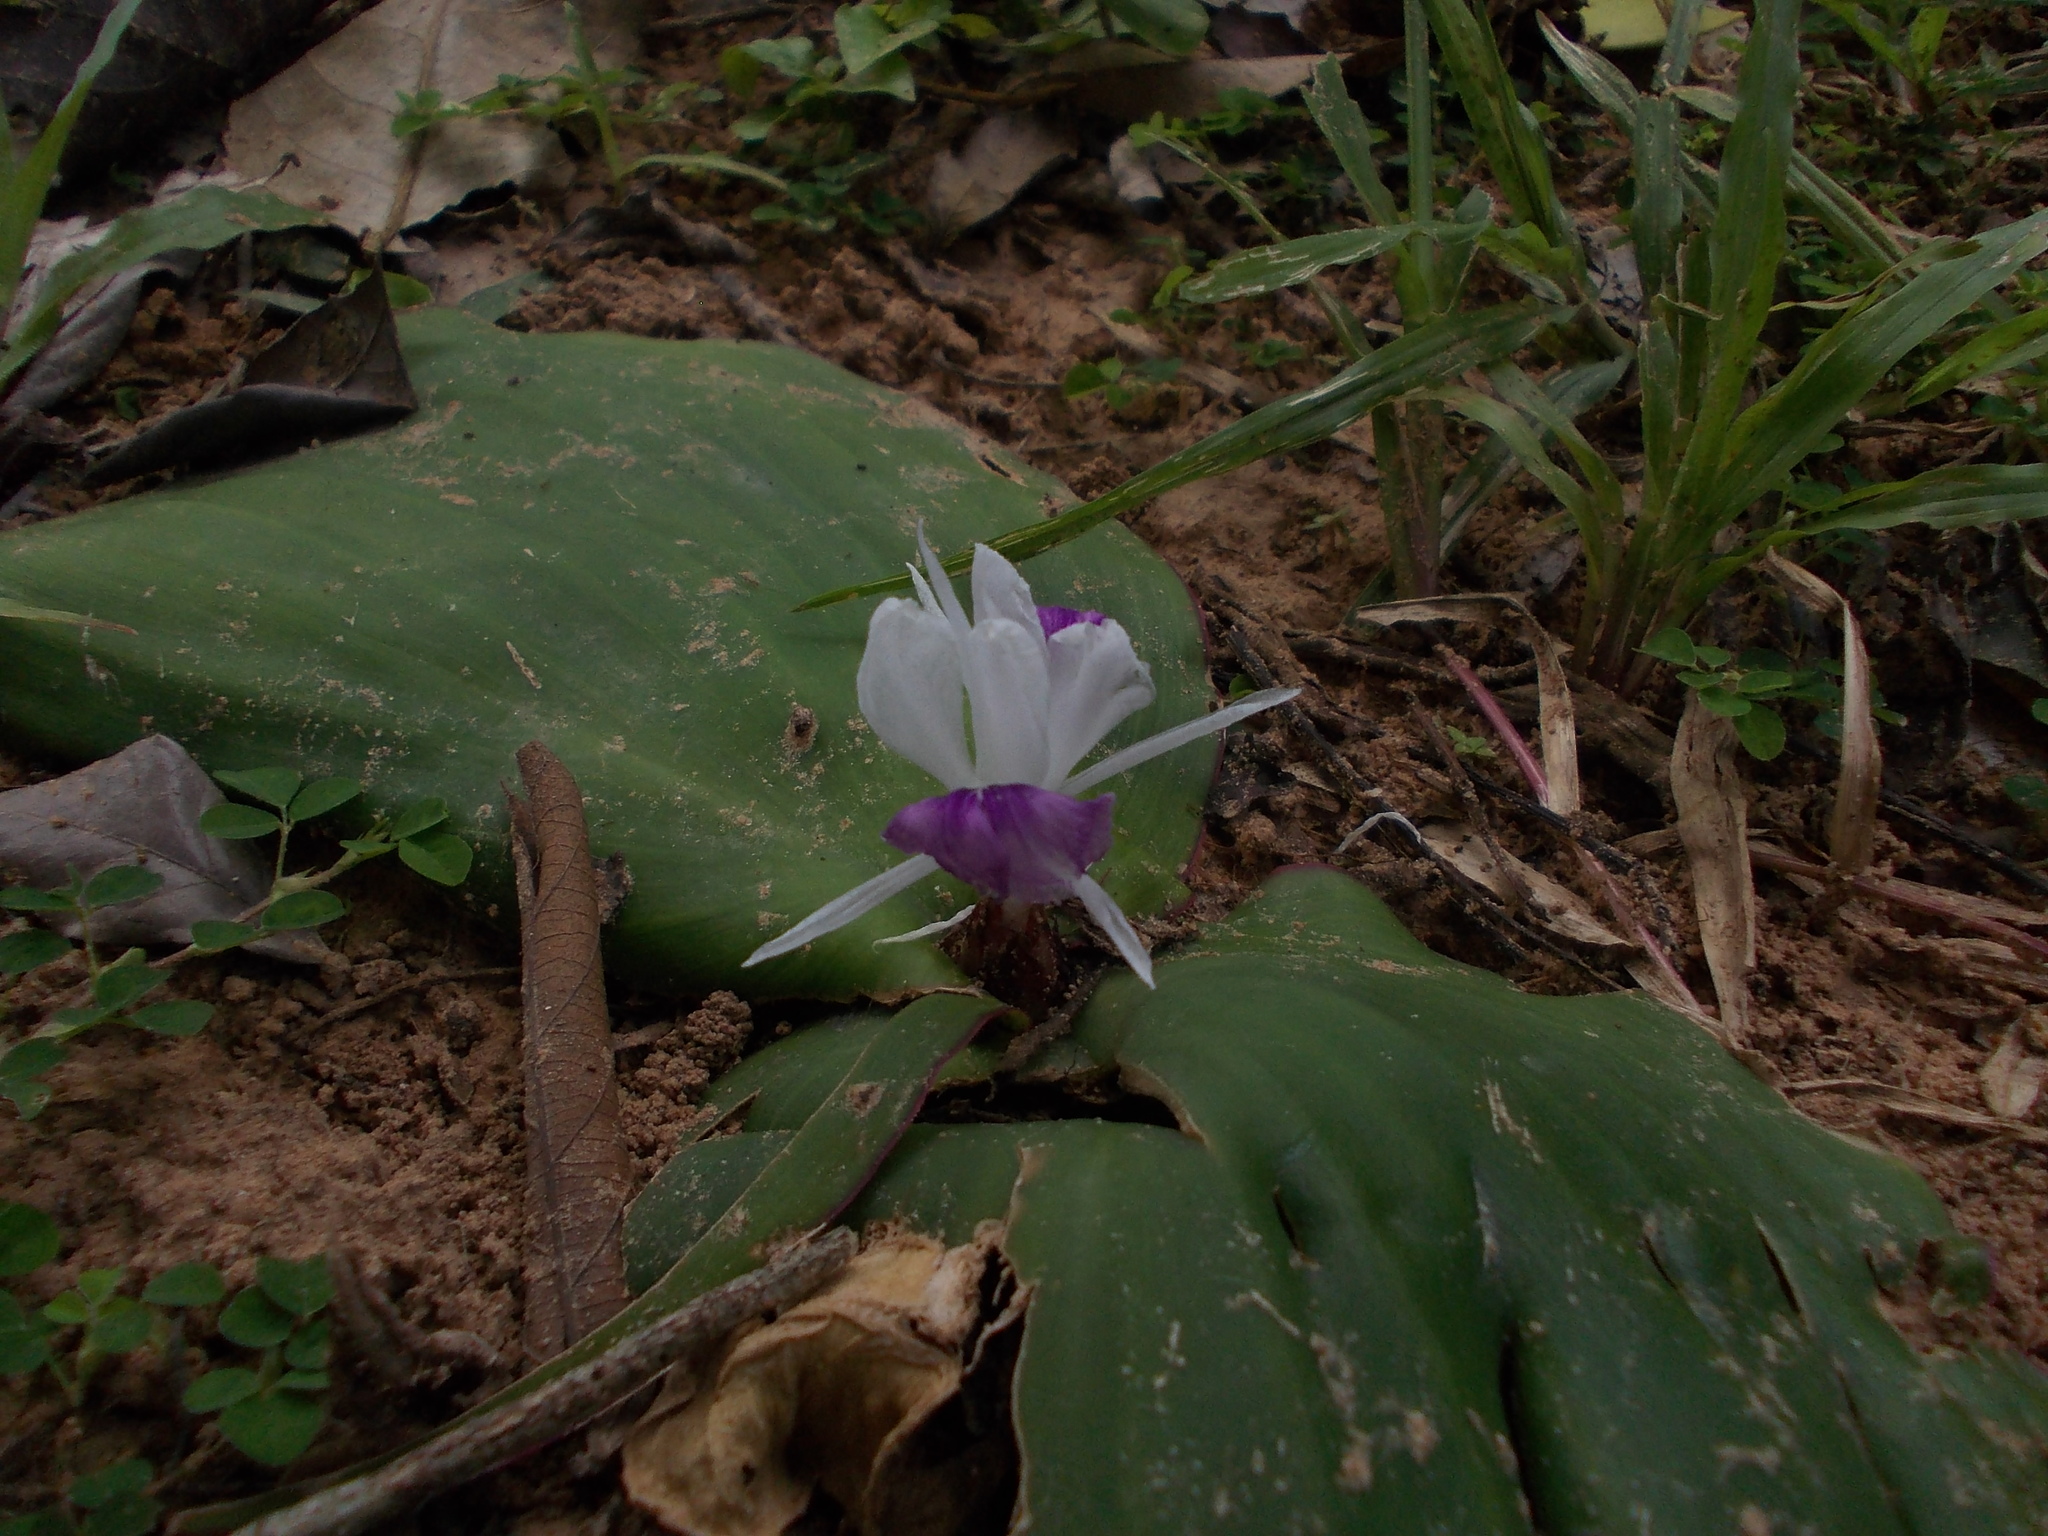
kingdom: Plantae
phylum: Tracheophyta
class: Liliopsida
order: Zingiberales
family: Zingiberaceae
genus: Kaempferia
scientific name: Kaempferia galanga
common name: Aromatic ginger
